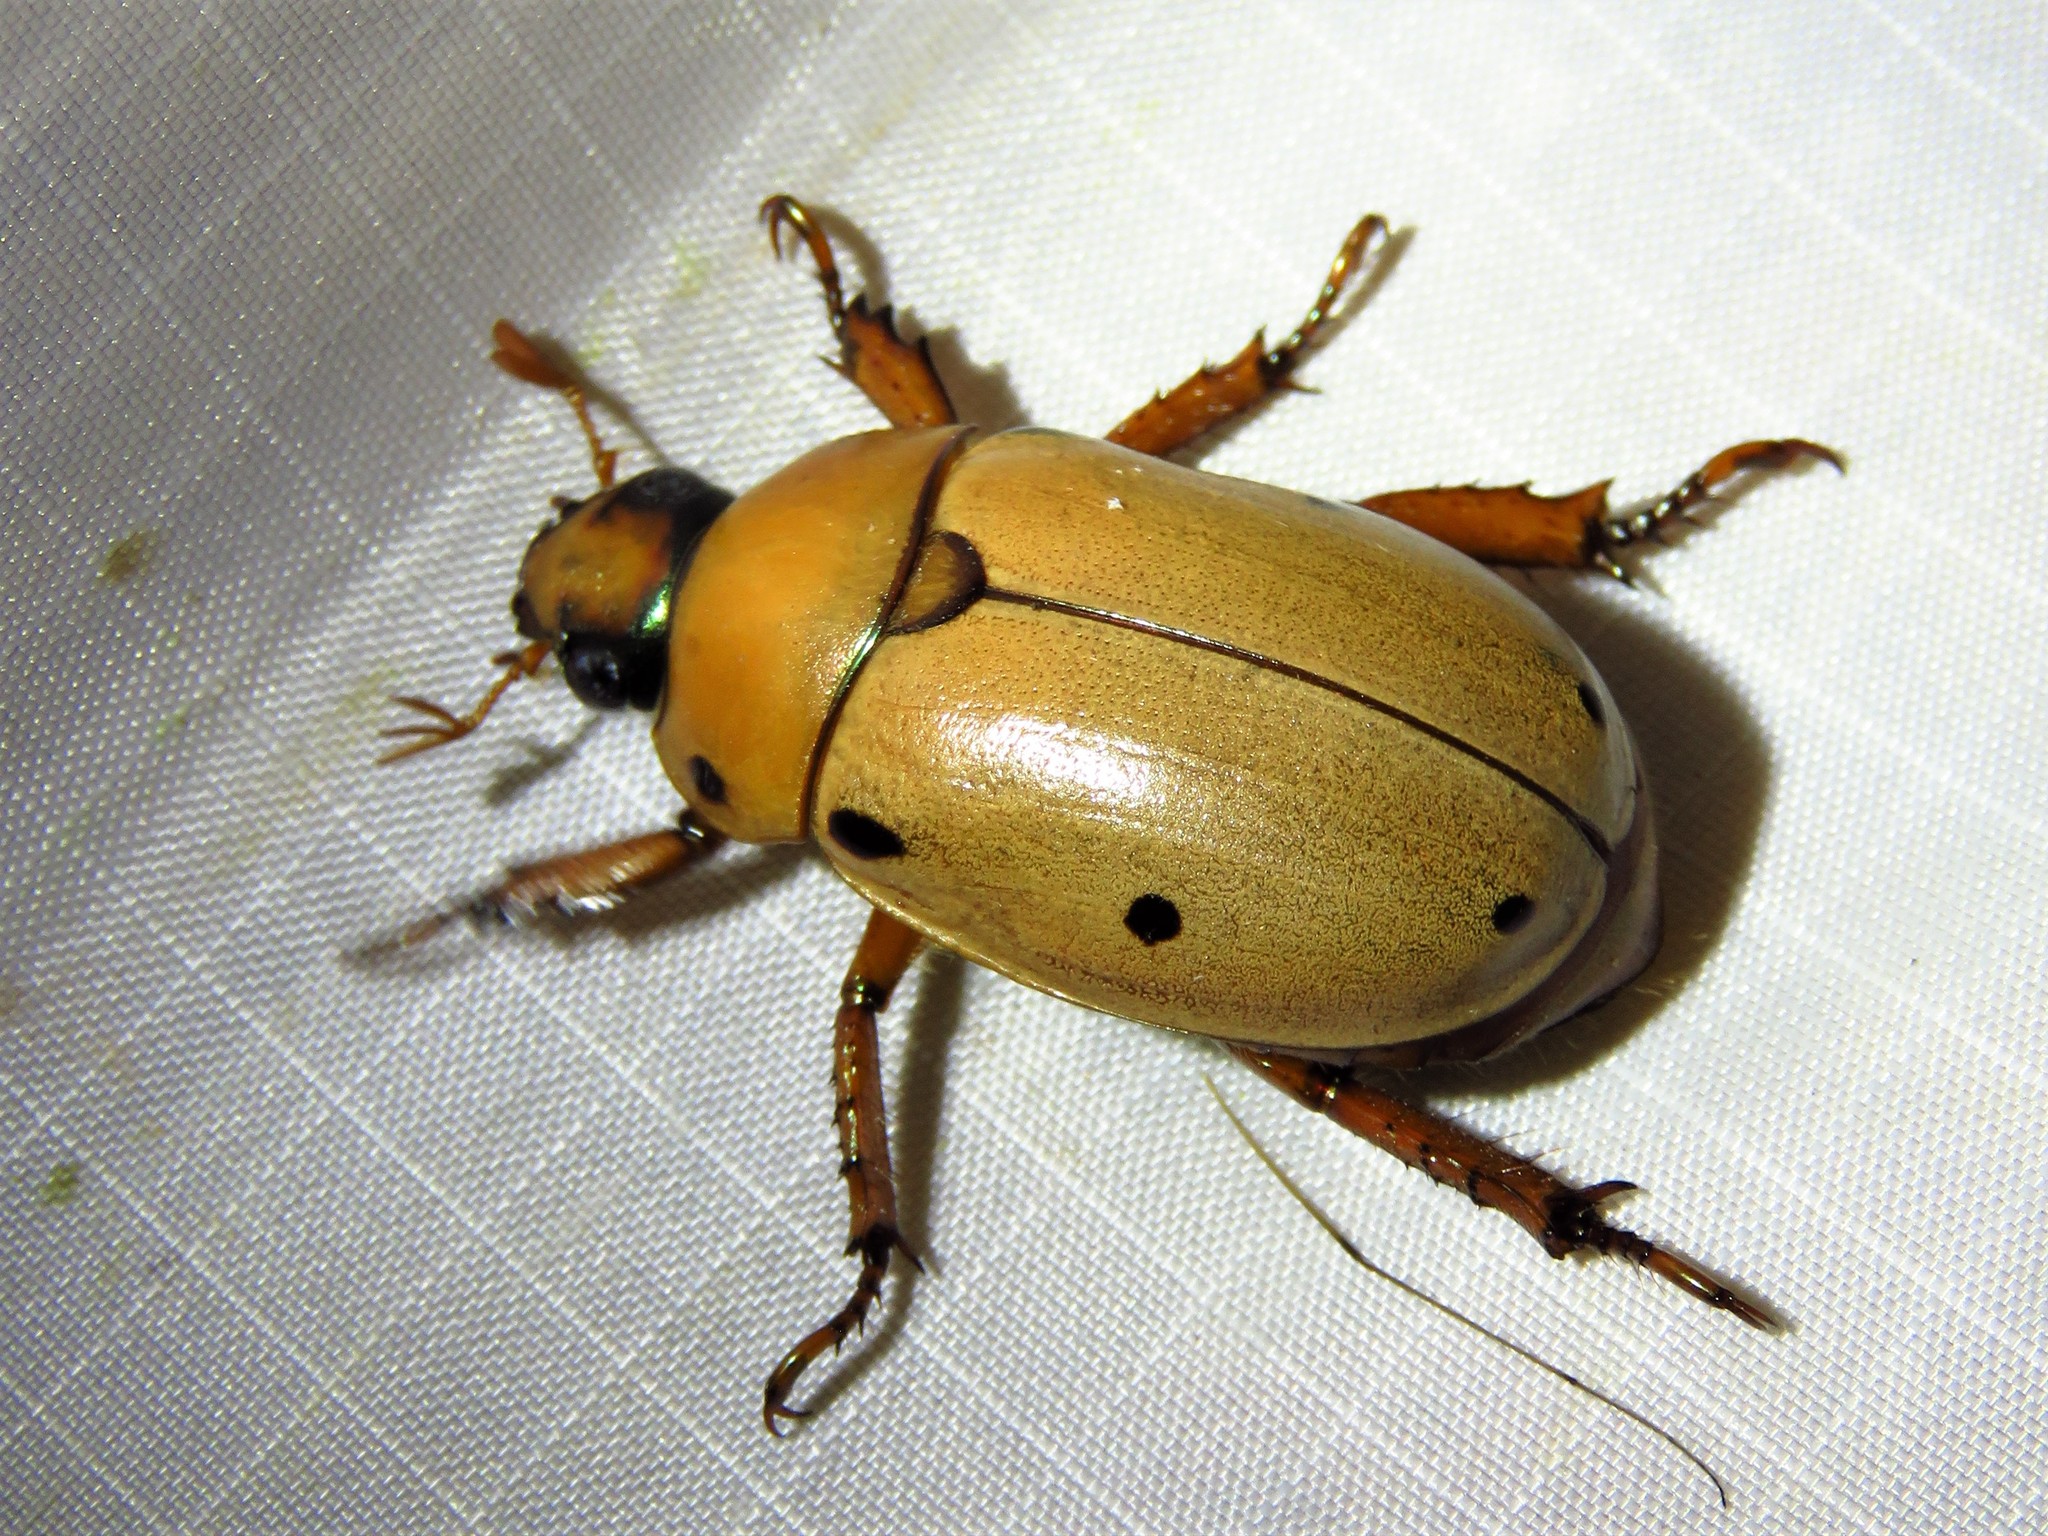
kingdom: Animalia
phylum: Arthropoda
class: Insecta
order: Coleoptera
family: Scarabaeidae
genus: Pelidnota
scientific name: Pelidnota punctata
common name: Grapevine beetle
